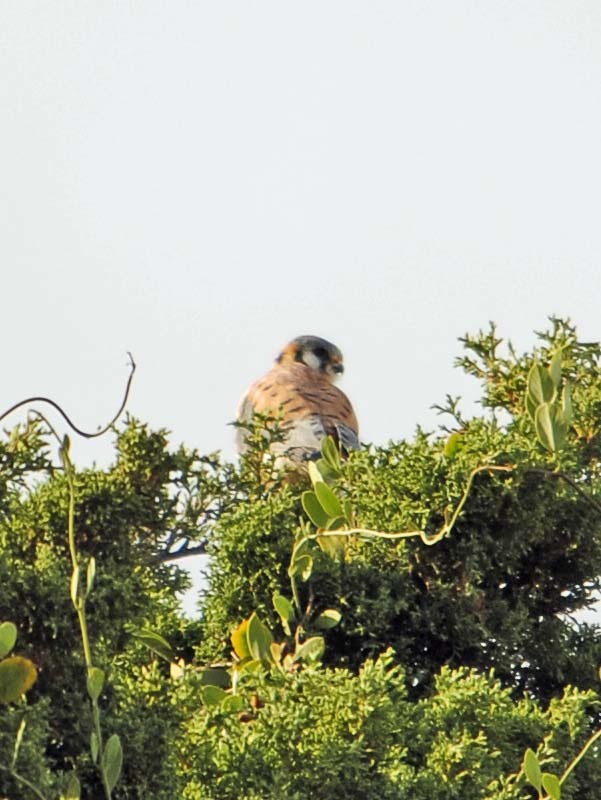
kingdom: Animalia
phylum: Chordata
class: Aves
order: Falconiformes
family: Falconidae
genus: Falco
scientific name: Falco sparverius
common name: American kestrel
